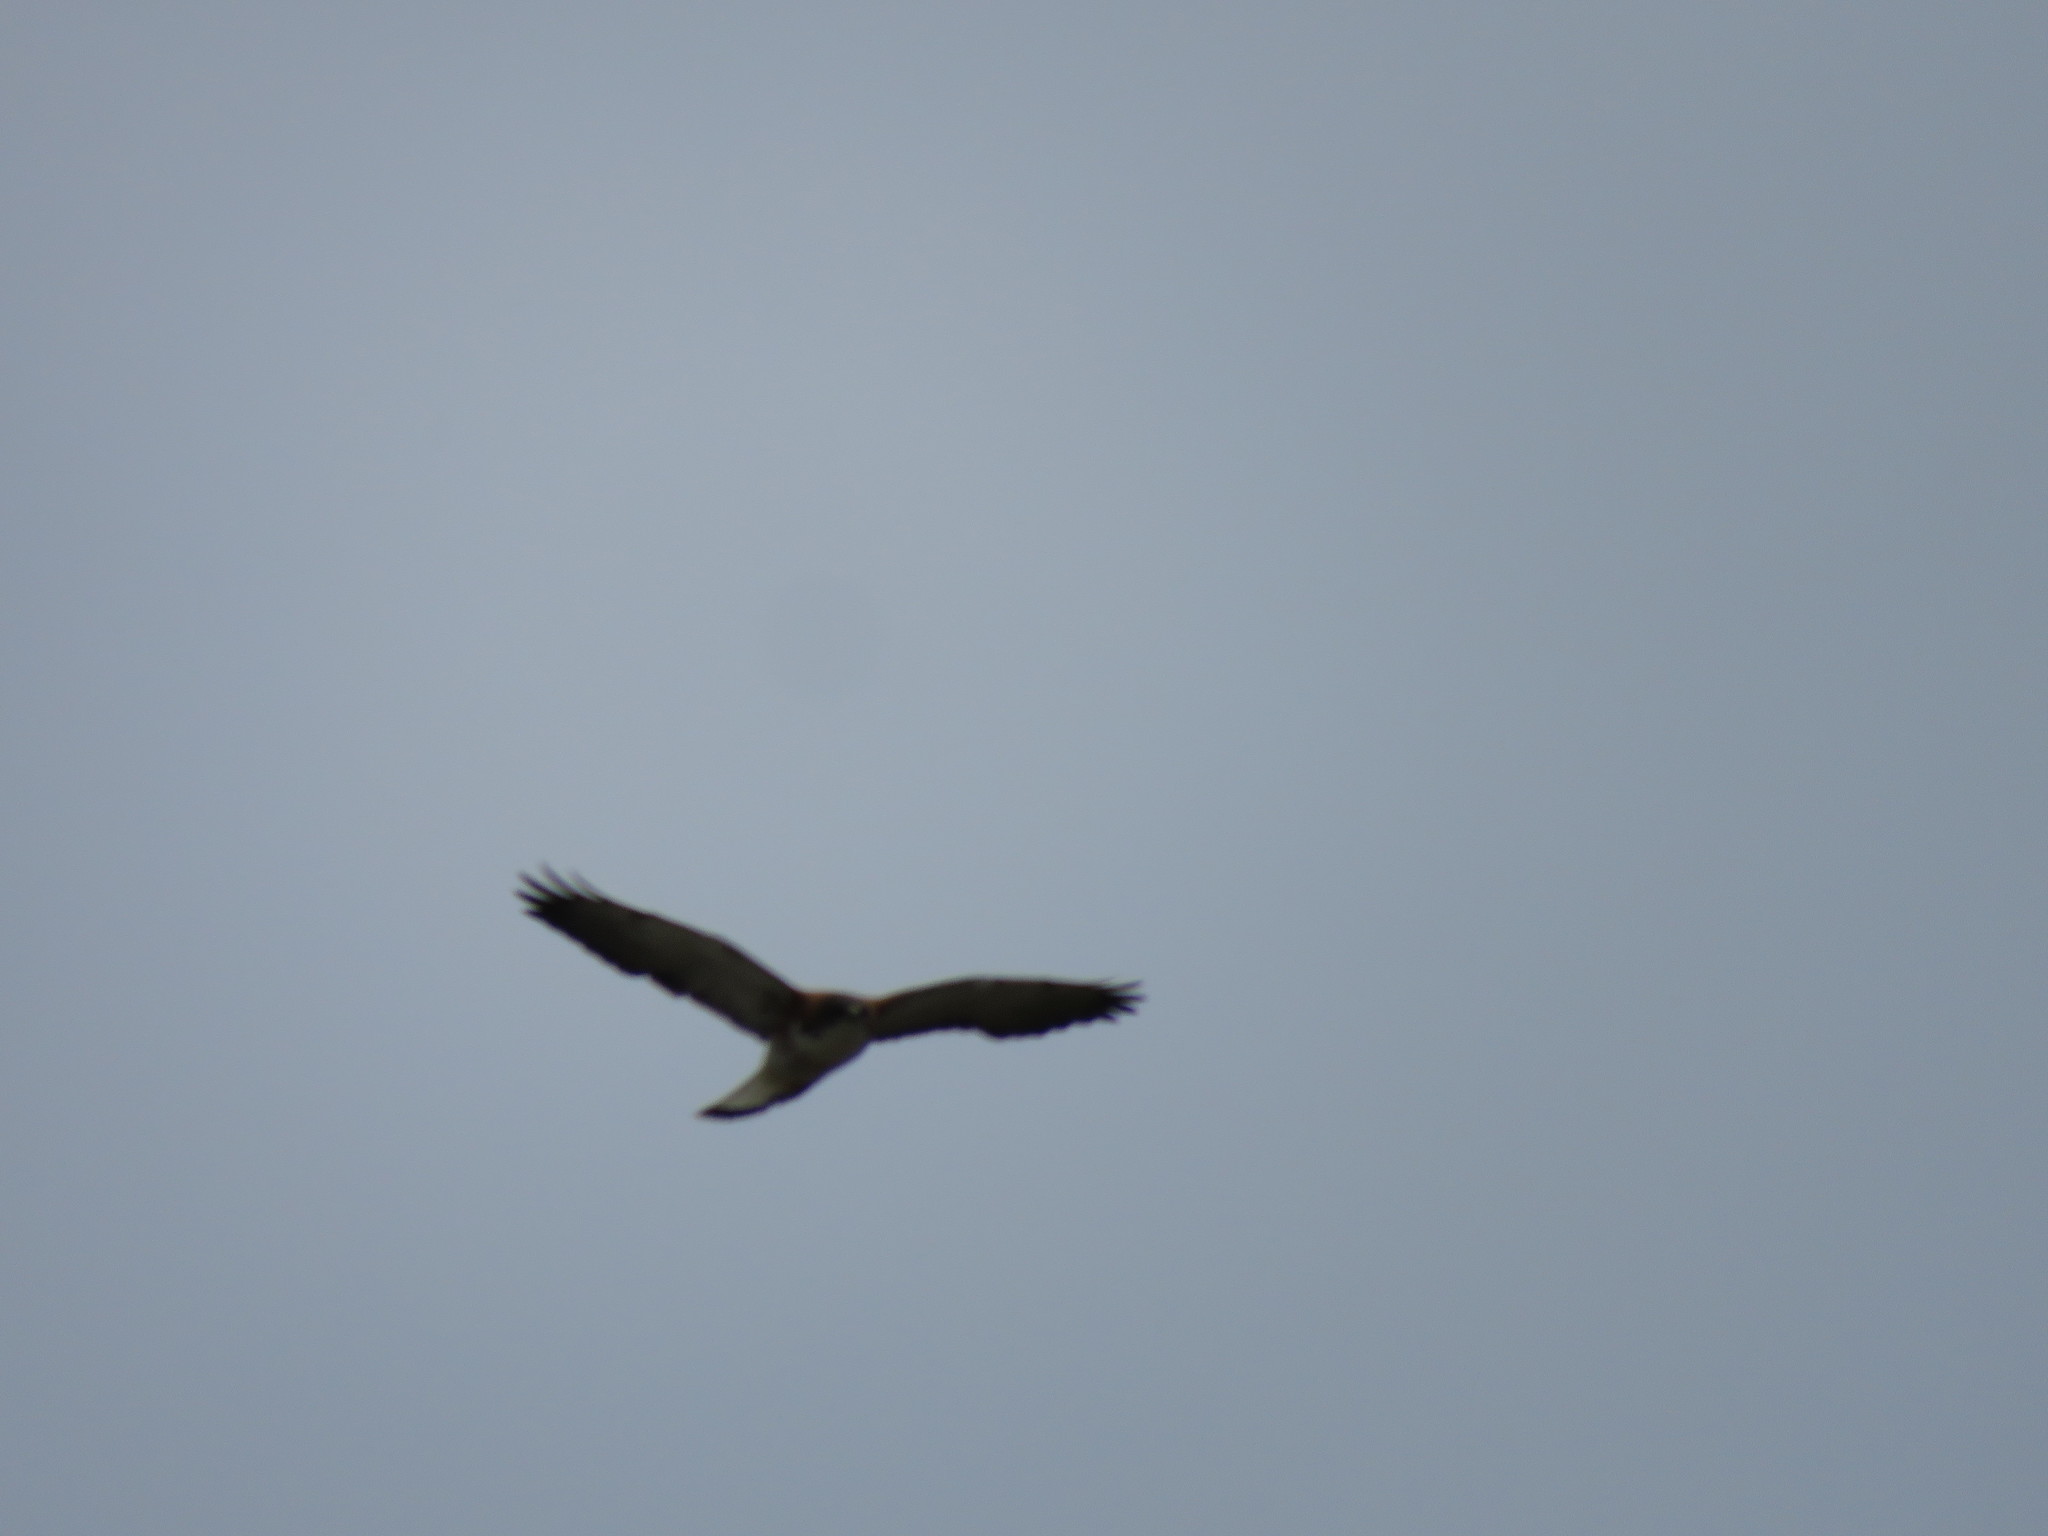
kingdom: Animalia
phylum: Chordata
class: Aves
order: Accipitriformes
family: Accipitridae
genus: Buteo
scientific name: Buteo polyosoma
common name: Variable hawk
